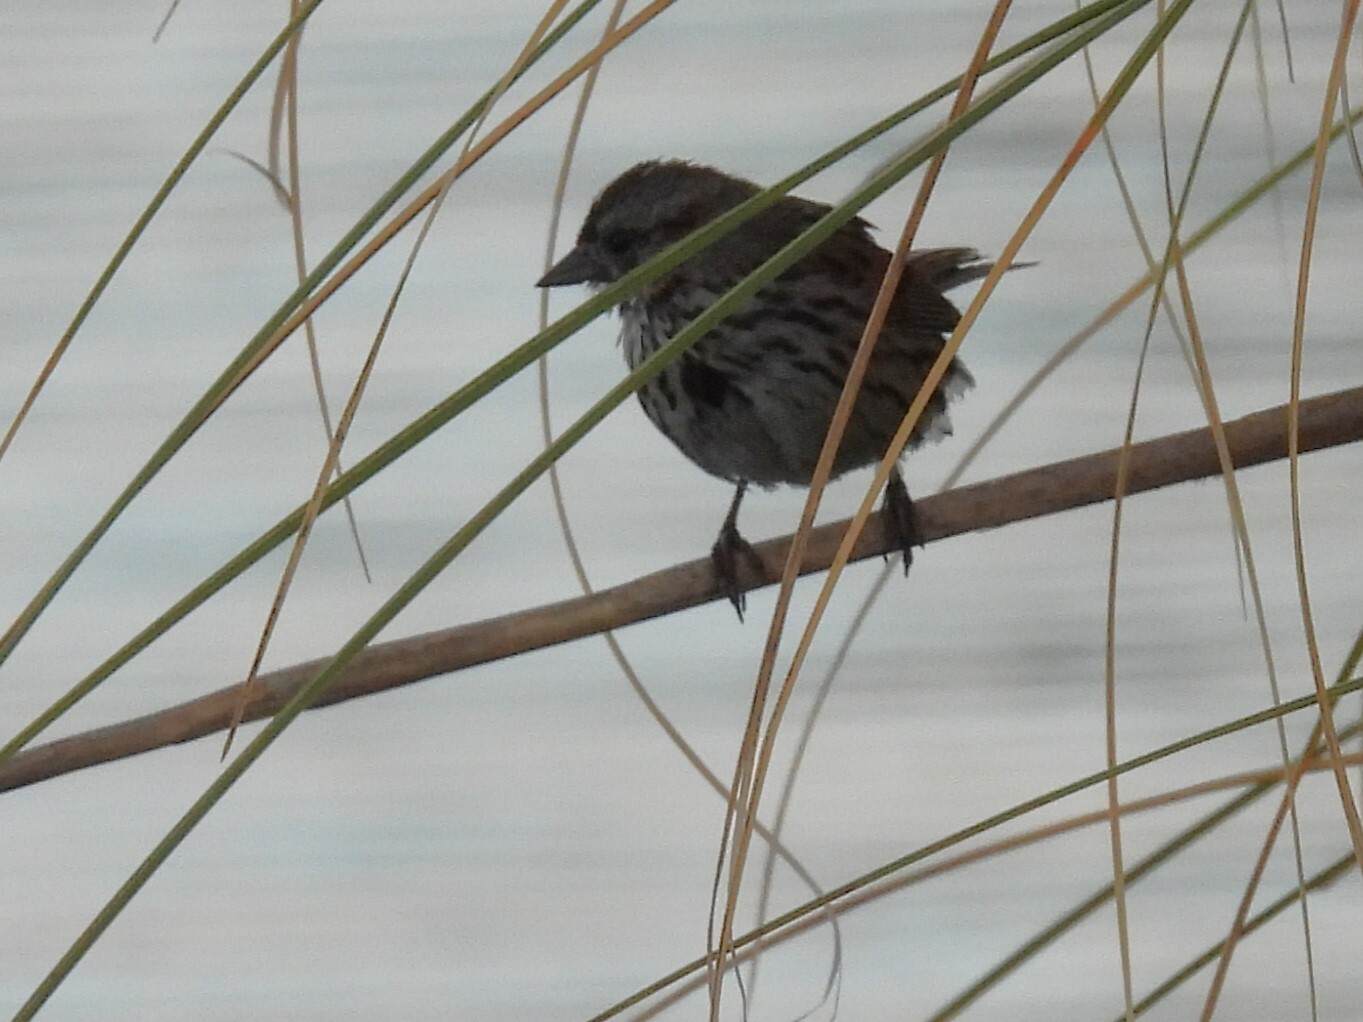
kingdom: Animalia
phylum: Chordata
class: Aves
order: Passeriformes
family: Passerellidae
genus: Melospiza
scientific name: Melospiza melodia
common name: Song sparrow
